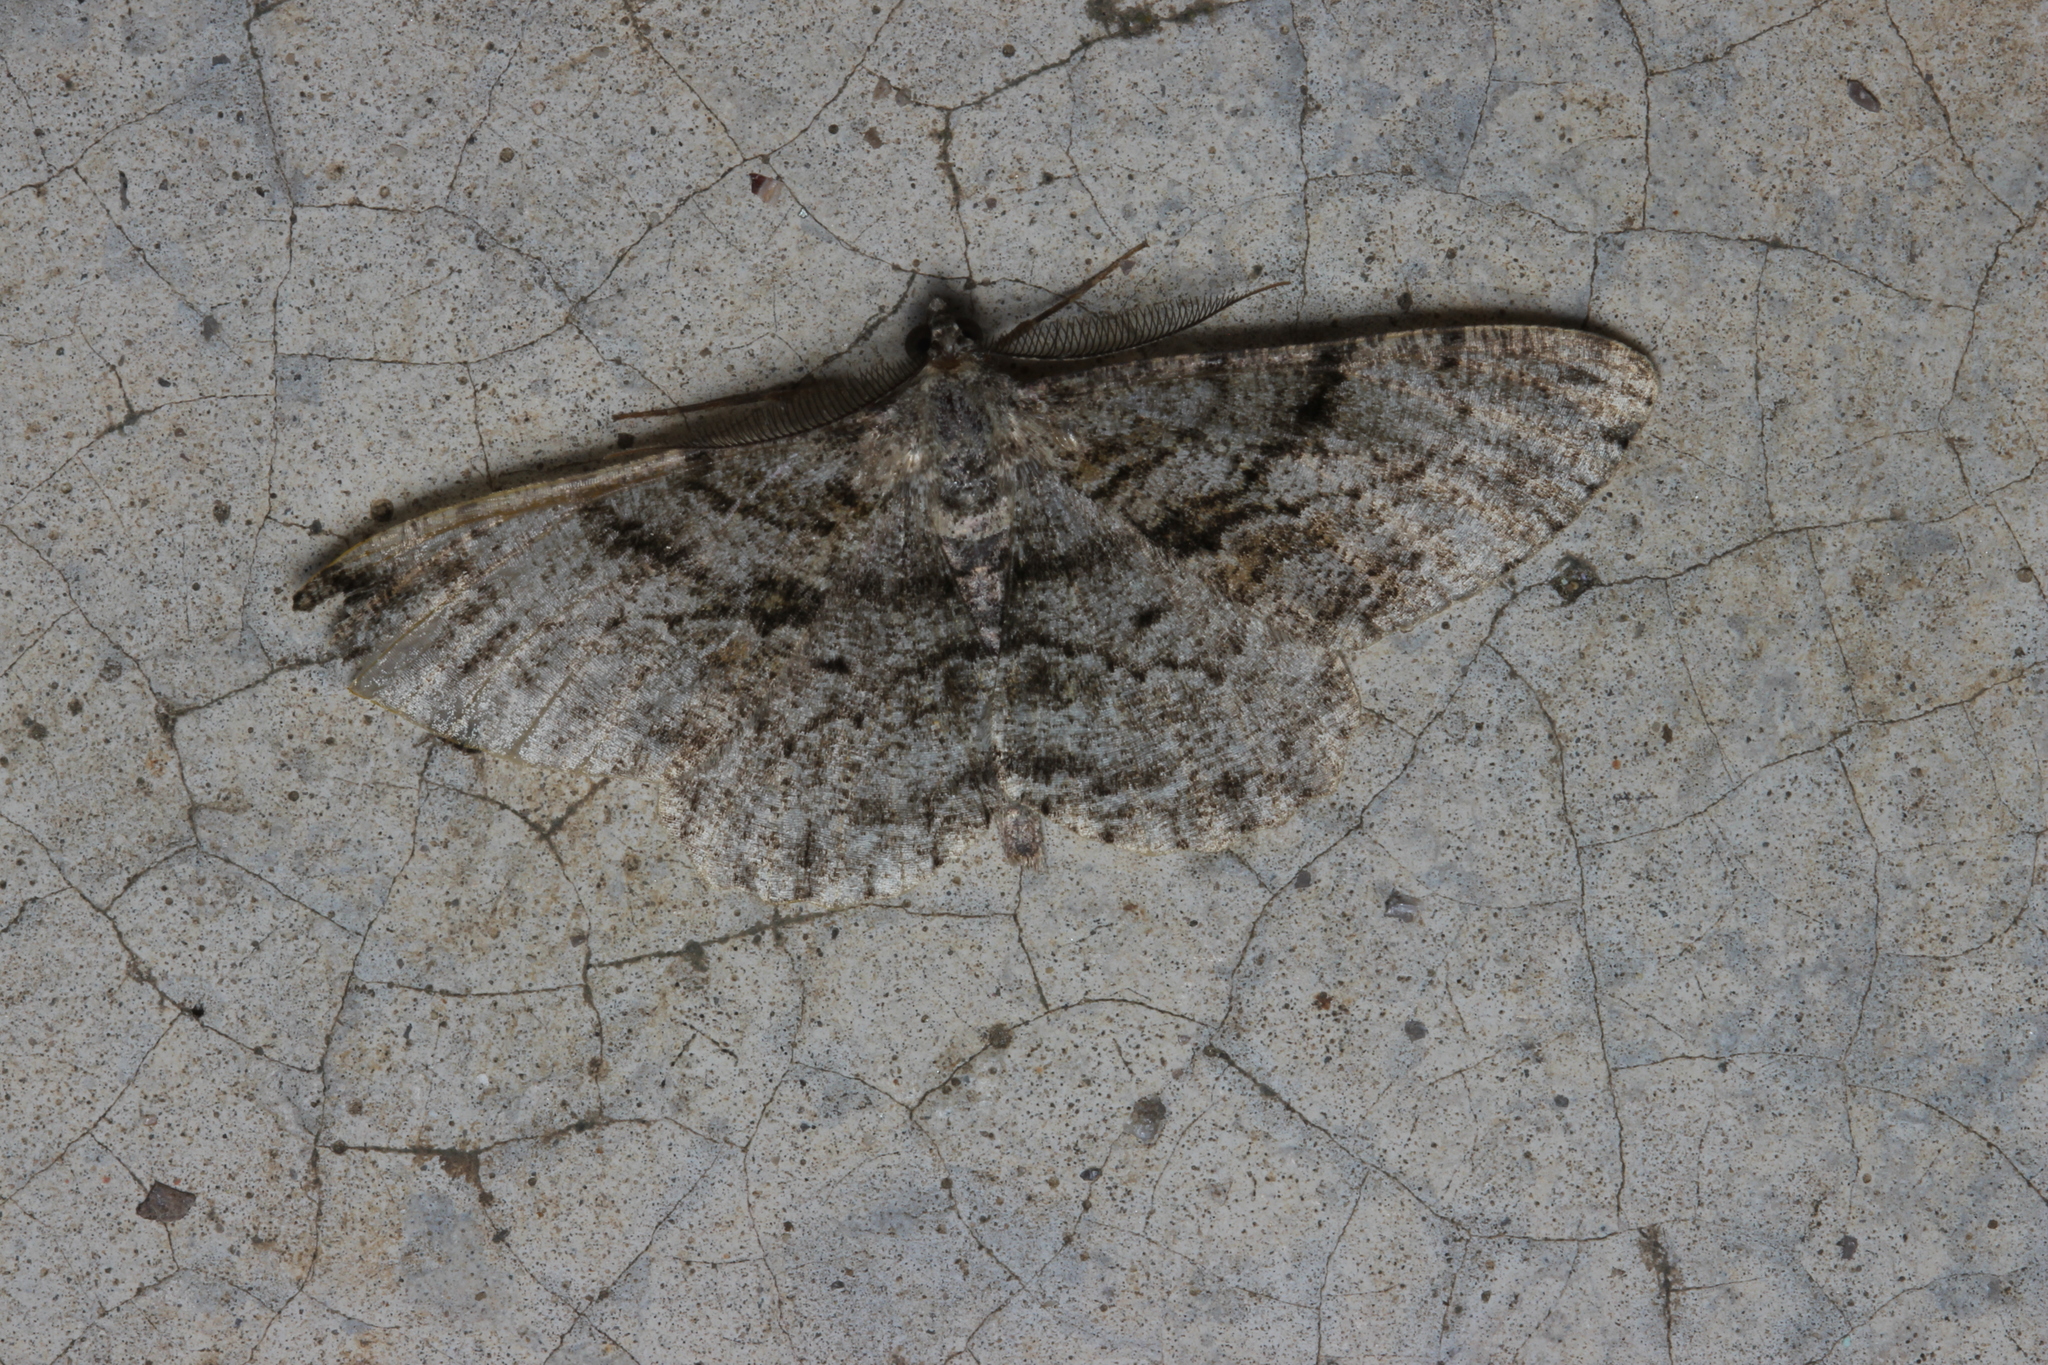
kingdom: Animalia
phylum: Arthropoda
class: Insecta
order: Lepidoptera
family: Geometridae
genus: Peribatodes
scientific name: Peribatodes rhomboidaria
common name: Willow beauty
